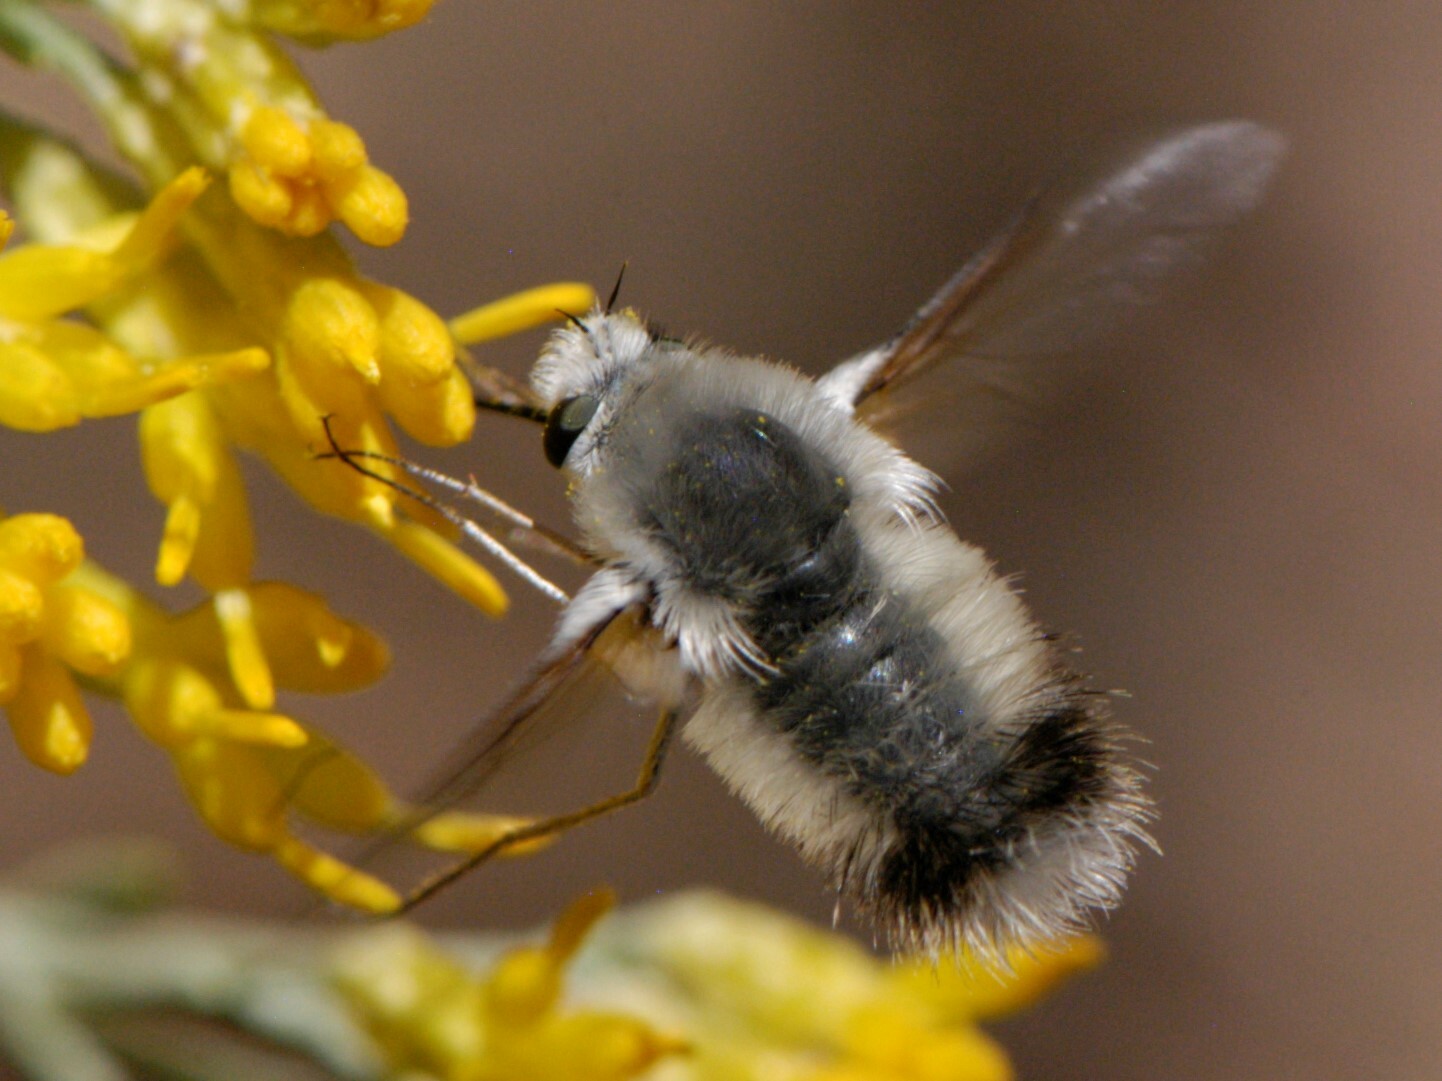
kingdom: Animalia
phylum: Arthropoda
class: Insecta
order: Diptera
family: Bombyliidae
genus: Anastoechus
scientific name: Anastoechus hessei
